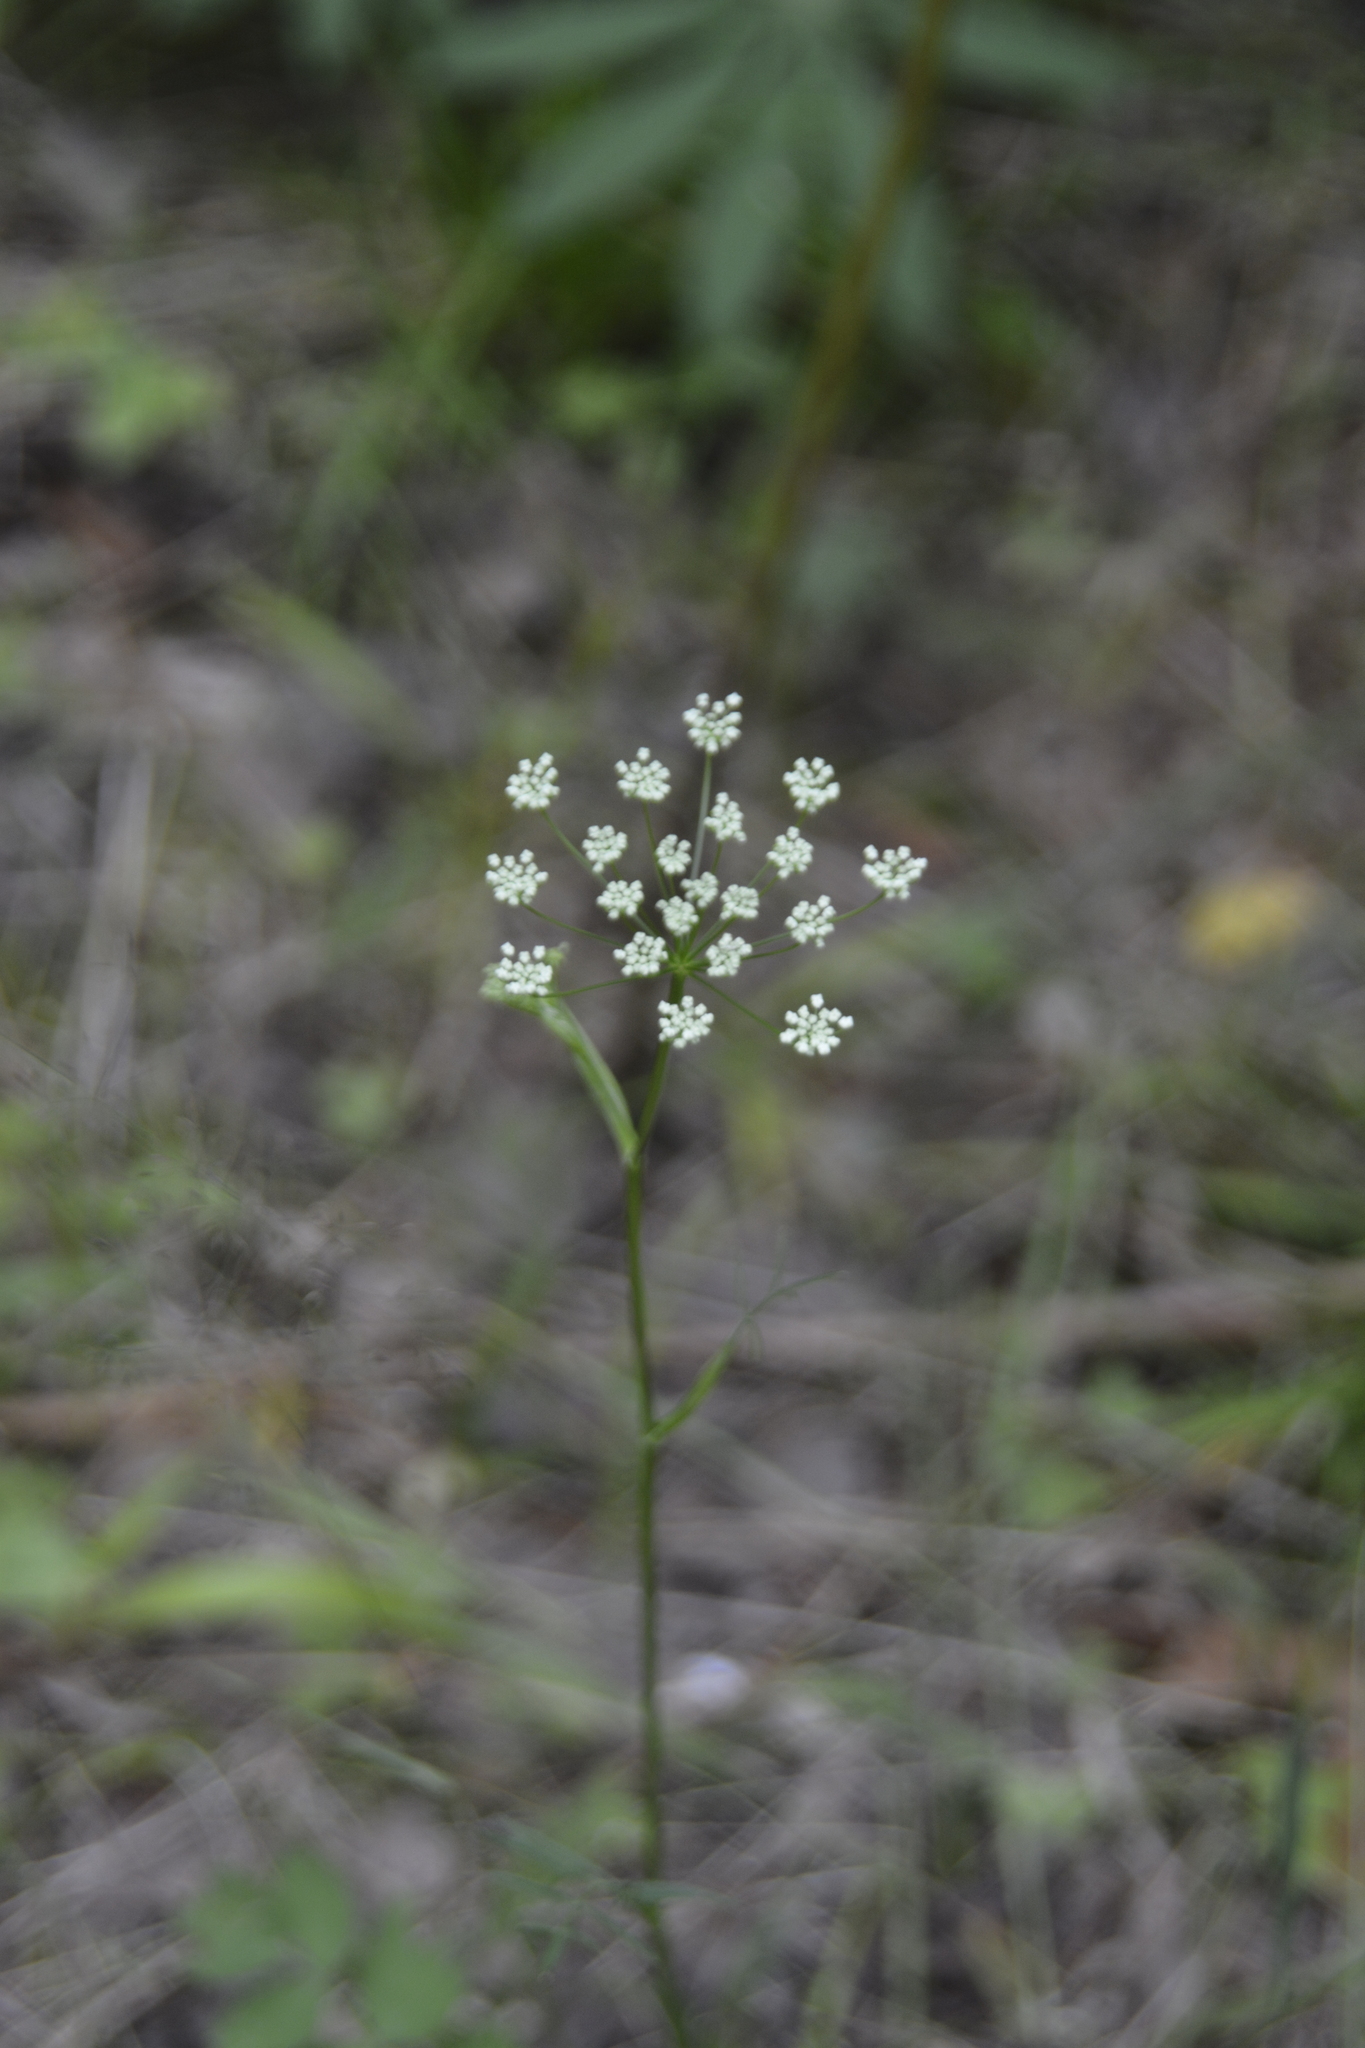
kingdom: Plantae
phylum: Tracheophyta
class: Magnoliopsida
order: Apiales
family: Apiaceae
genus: Pimpinella
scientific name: Pimpinella saxifraga
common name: Burnet-saxifrage
